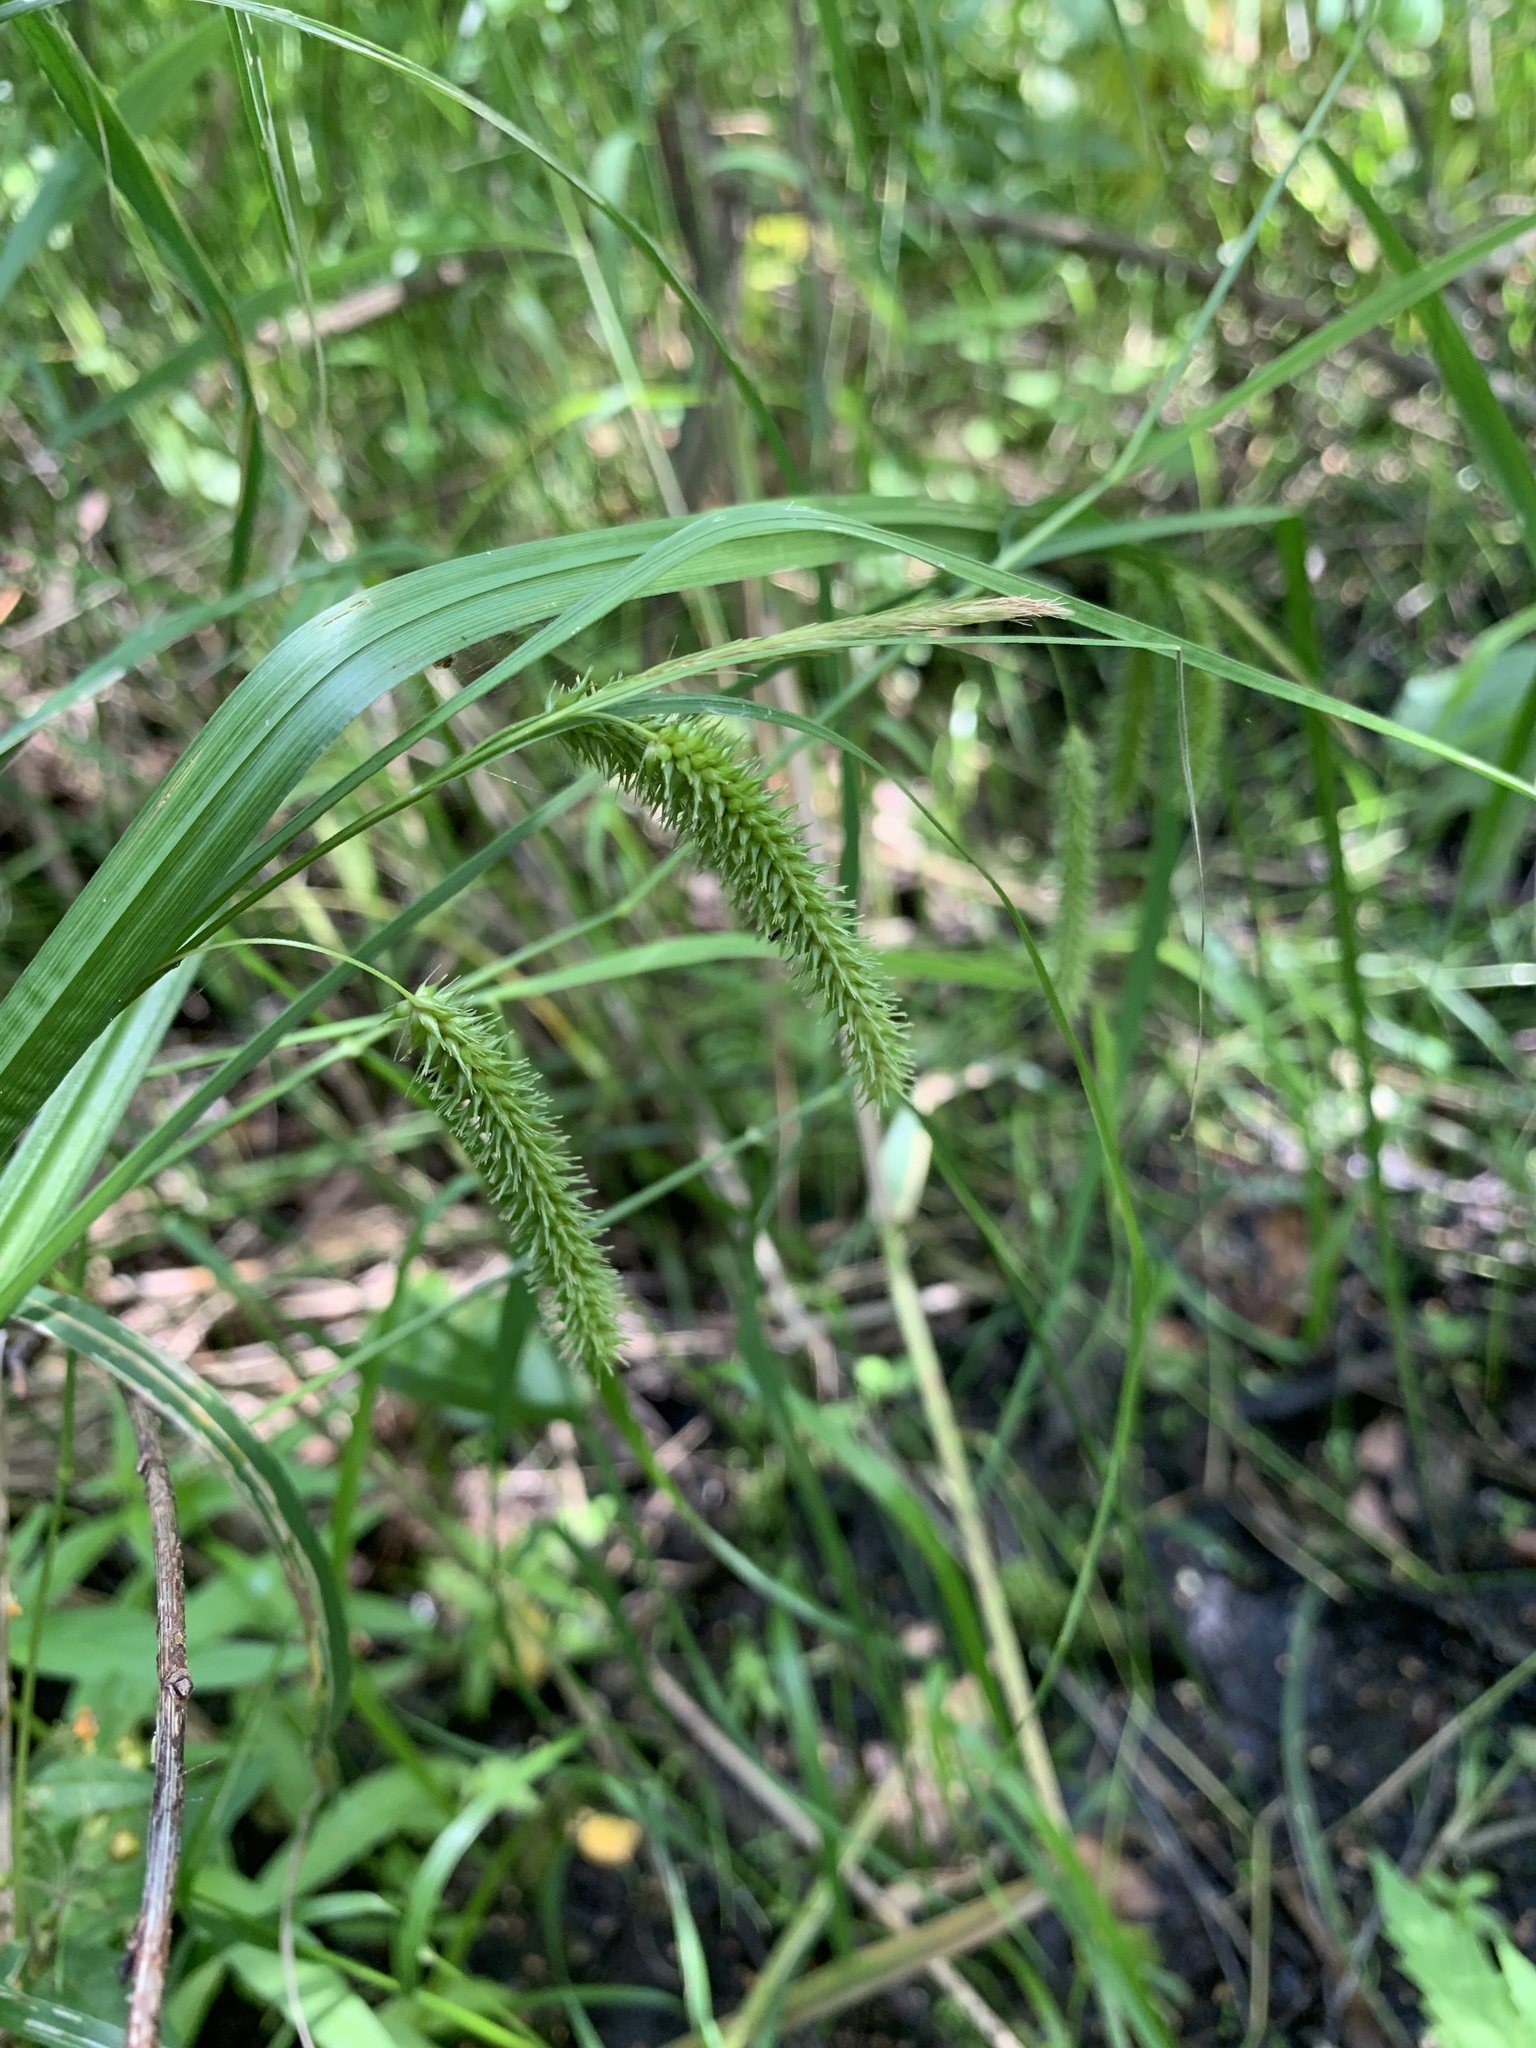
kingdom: Plantae
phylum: Tracheophyta
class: Liliopsida
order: Poales
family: Cyperaceae
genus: Carex
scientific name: Carex pseudocyperus
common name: Cyperus sedge
